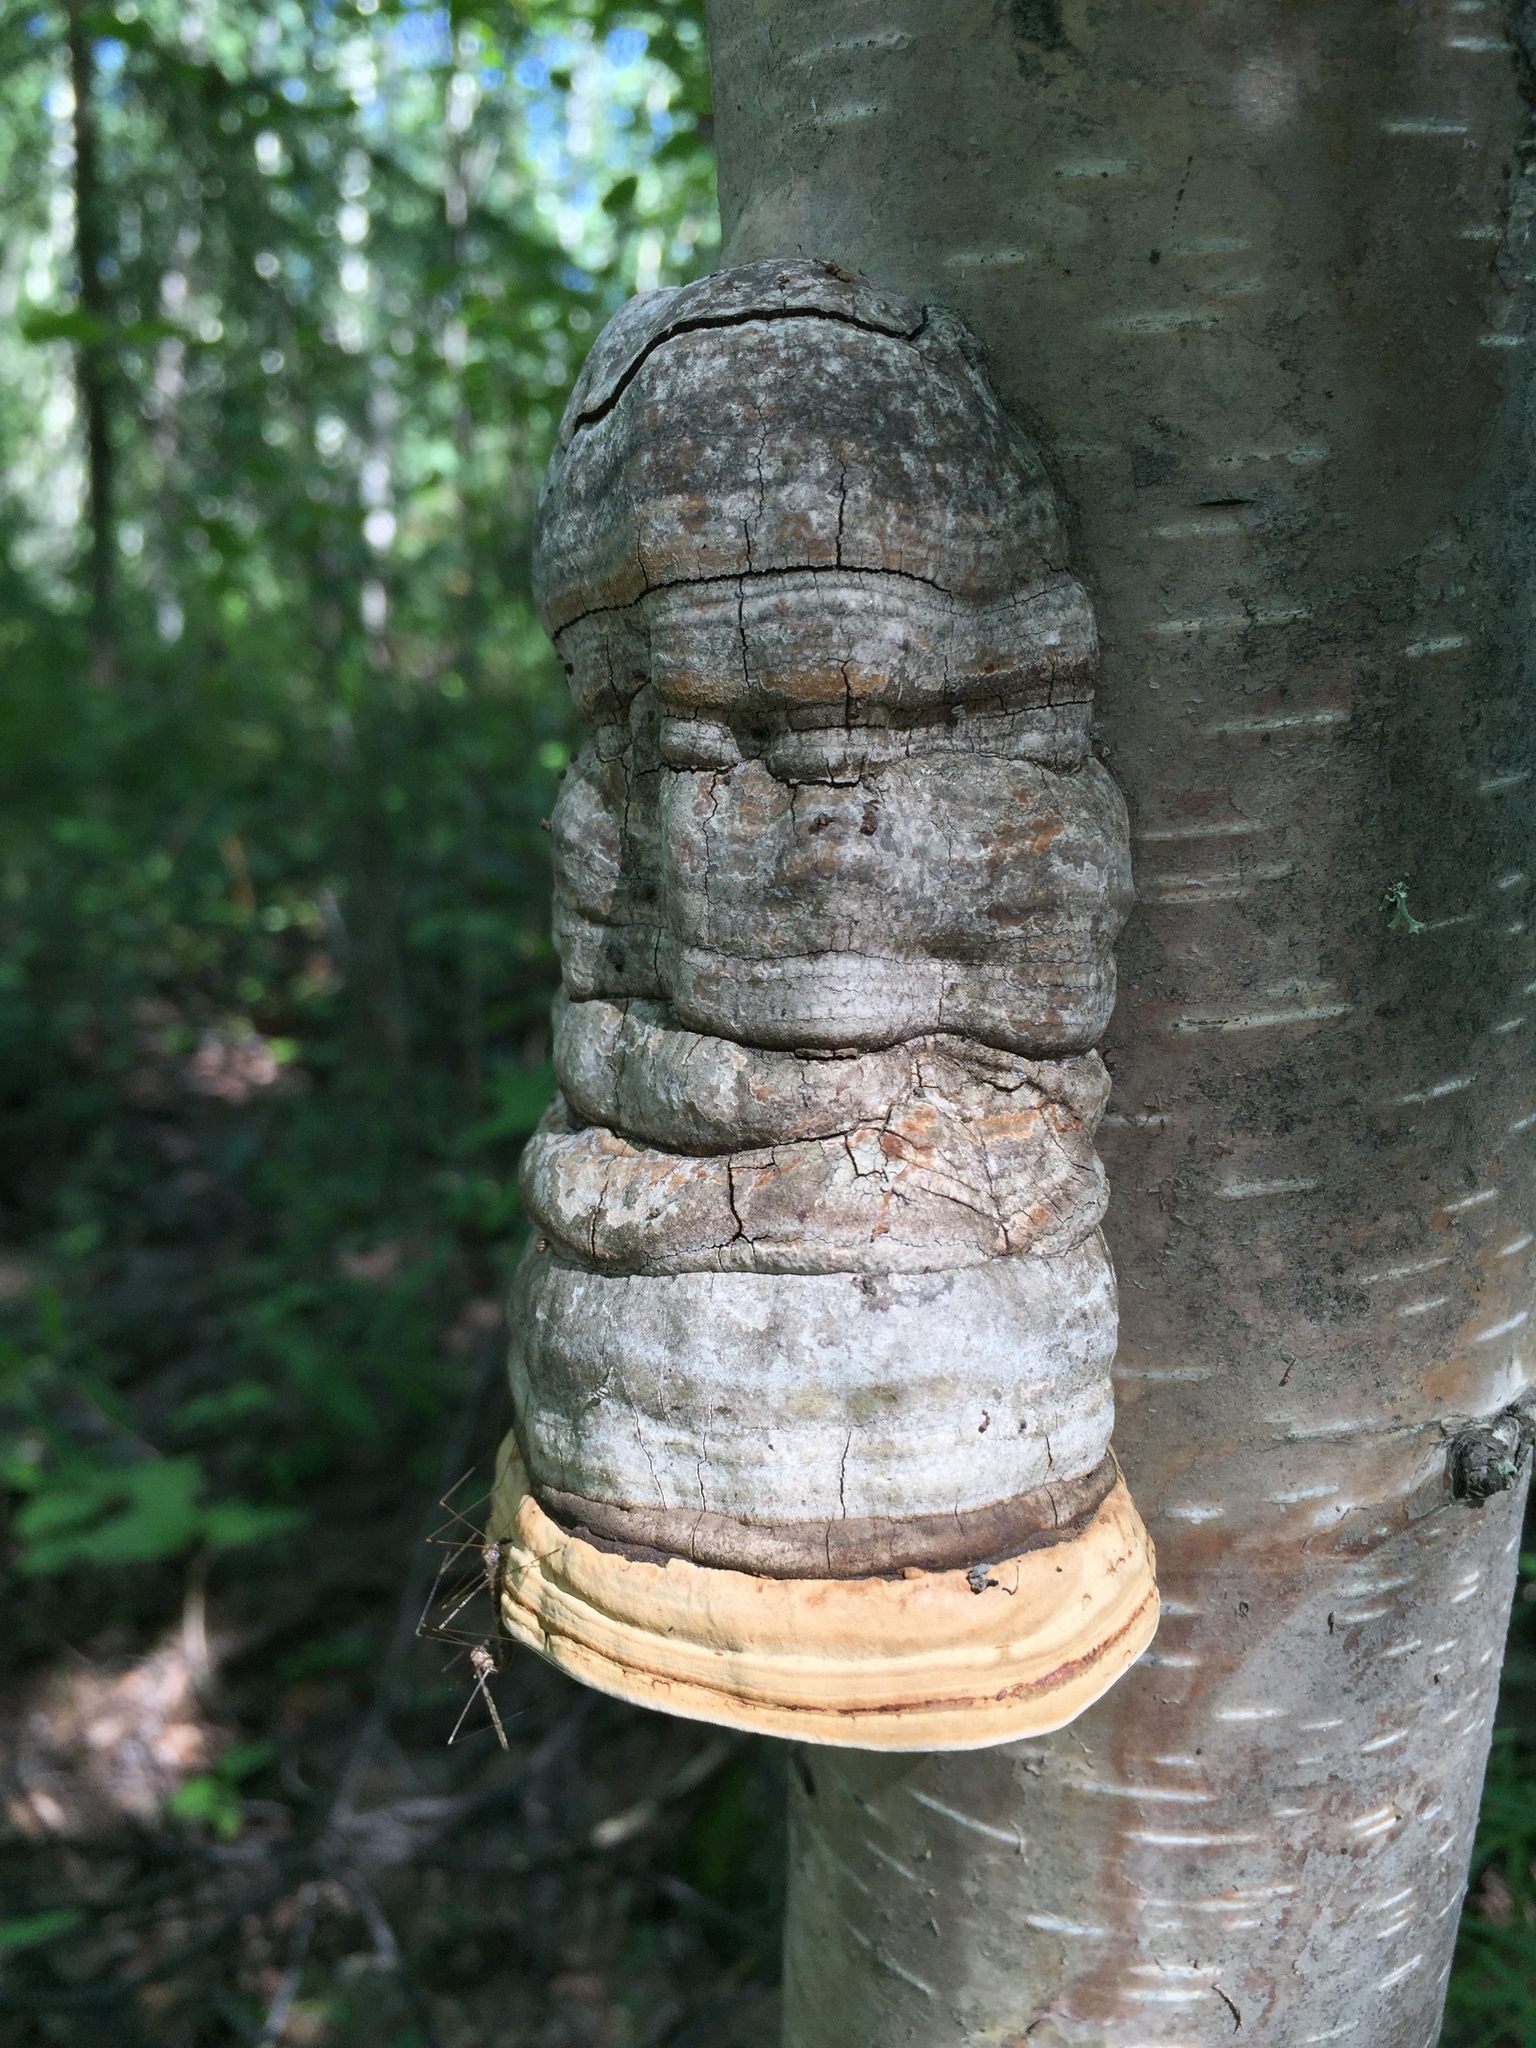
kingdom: Fungi
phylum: Basidiomycota
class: Agaricomycetes
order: Polyporales
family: Polyporaceae
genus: Fomes
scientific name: Fomes fomentarius
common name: Hoof fungus
